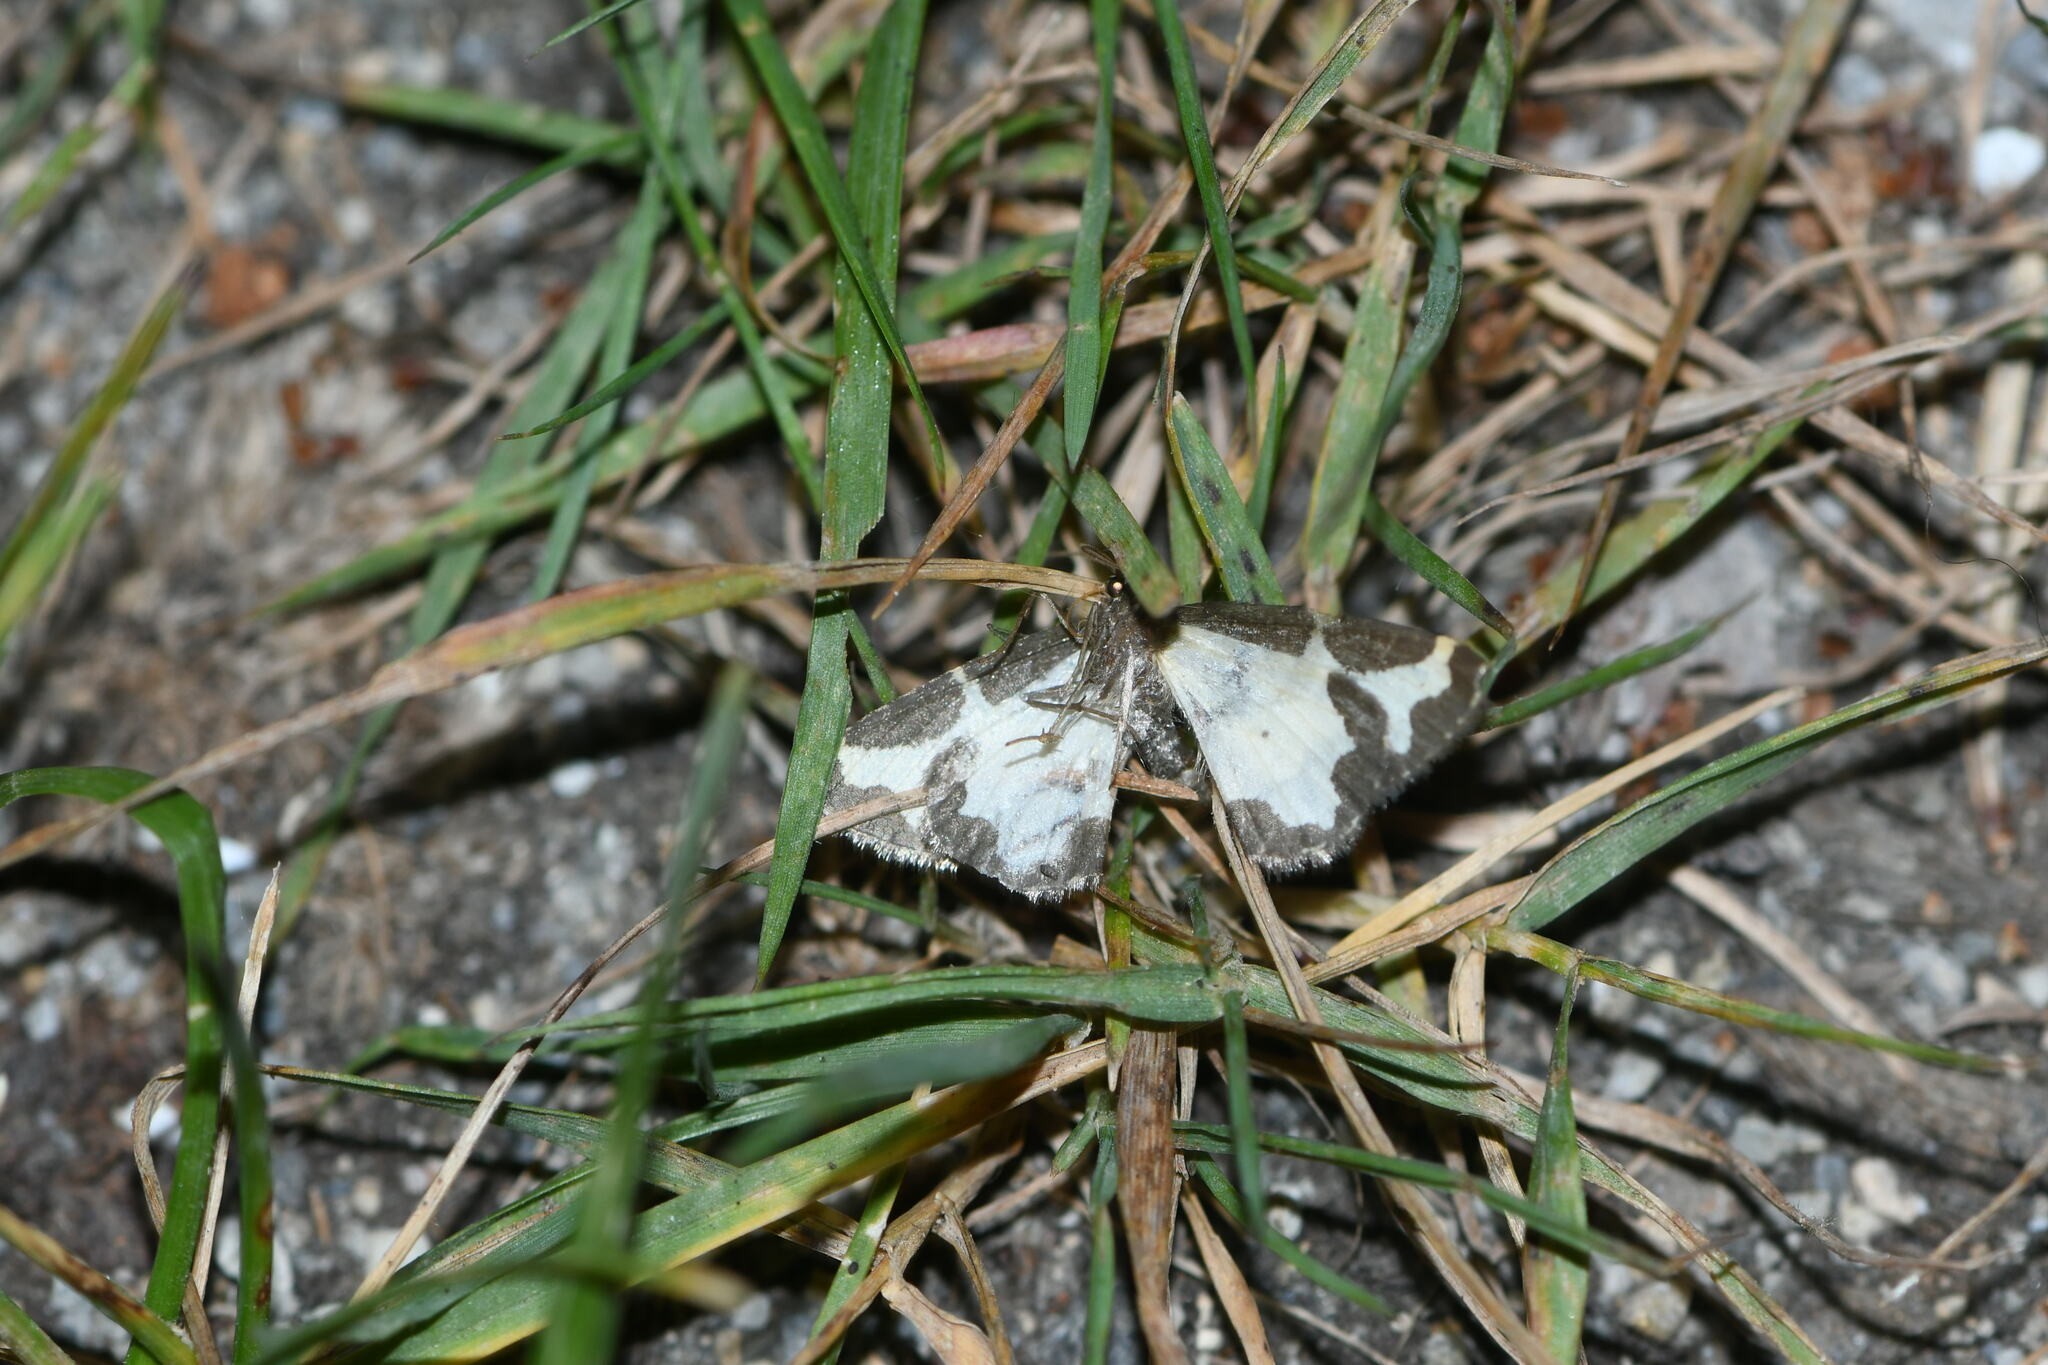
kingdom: Animalia
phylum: Arthropoda
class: Insecta
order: Lepidoptera
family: Geometridae
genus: Lomaspilis
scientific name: Lomaspilis marginata
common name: Clouded border
